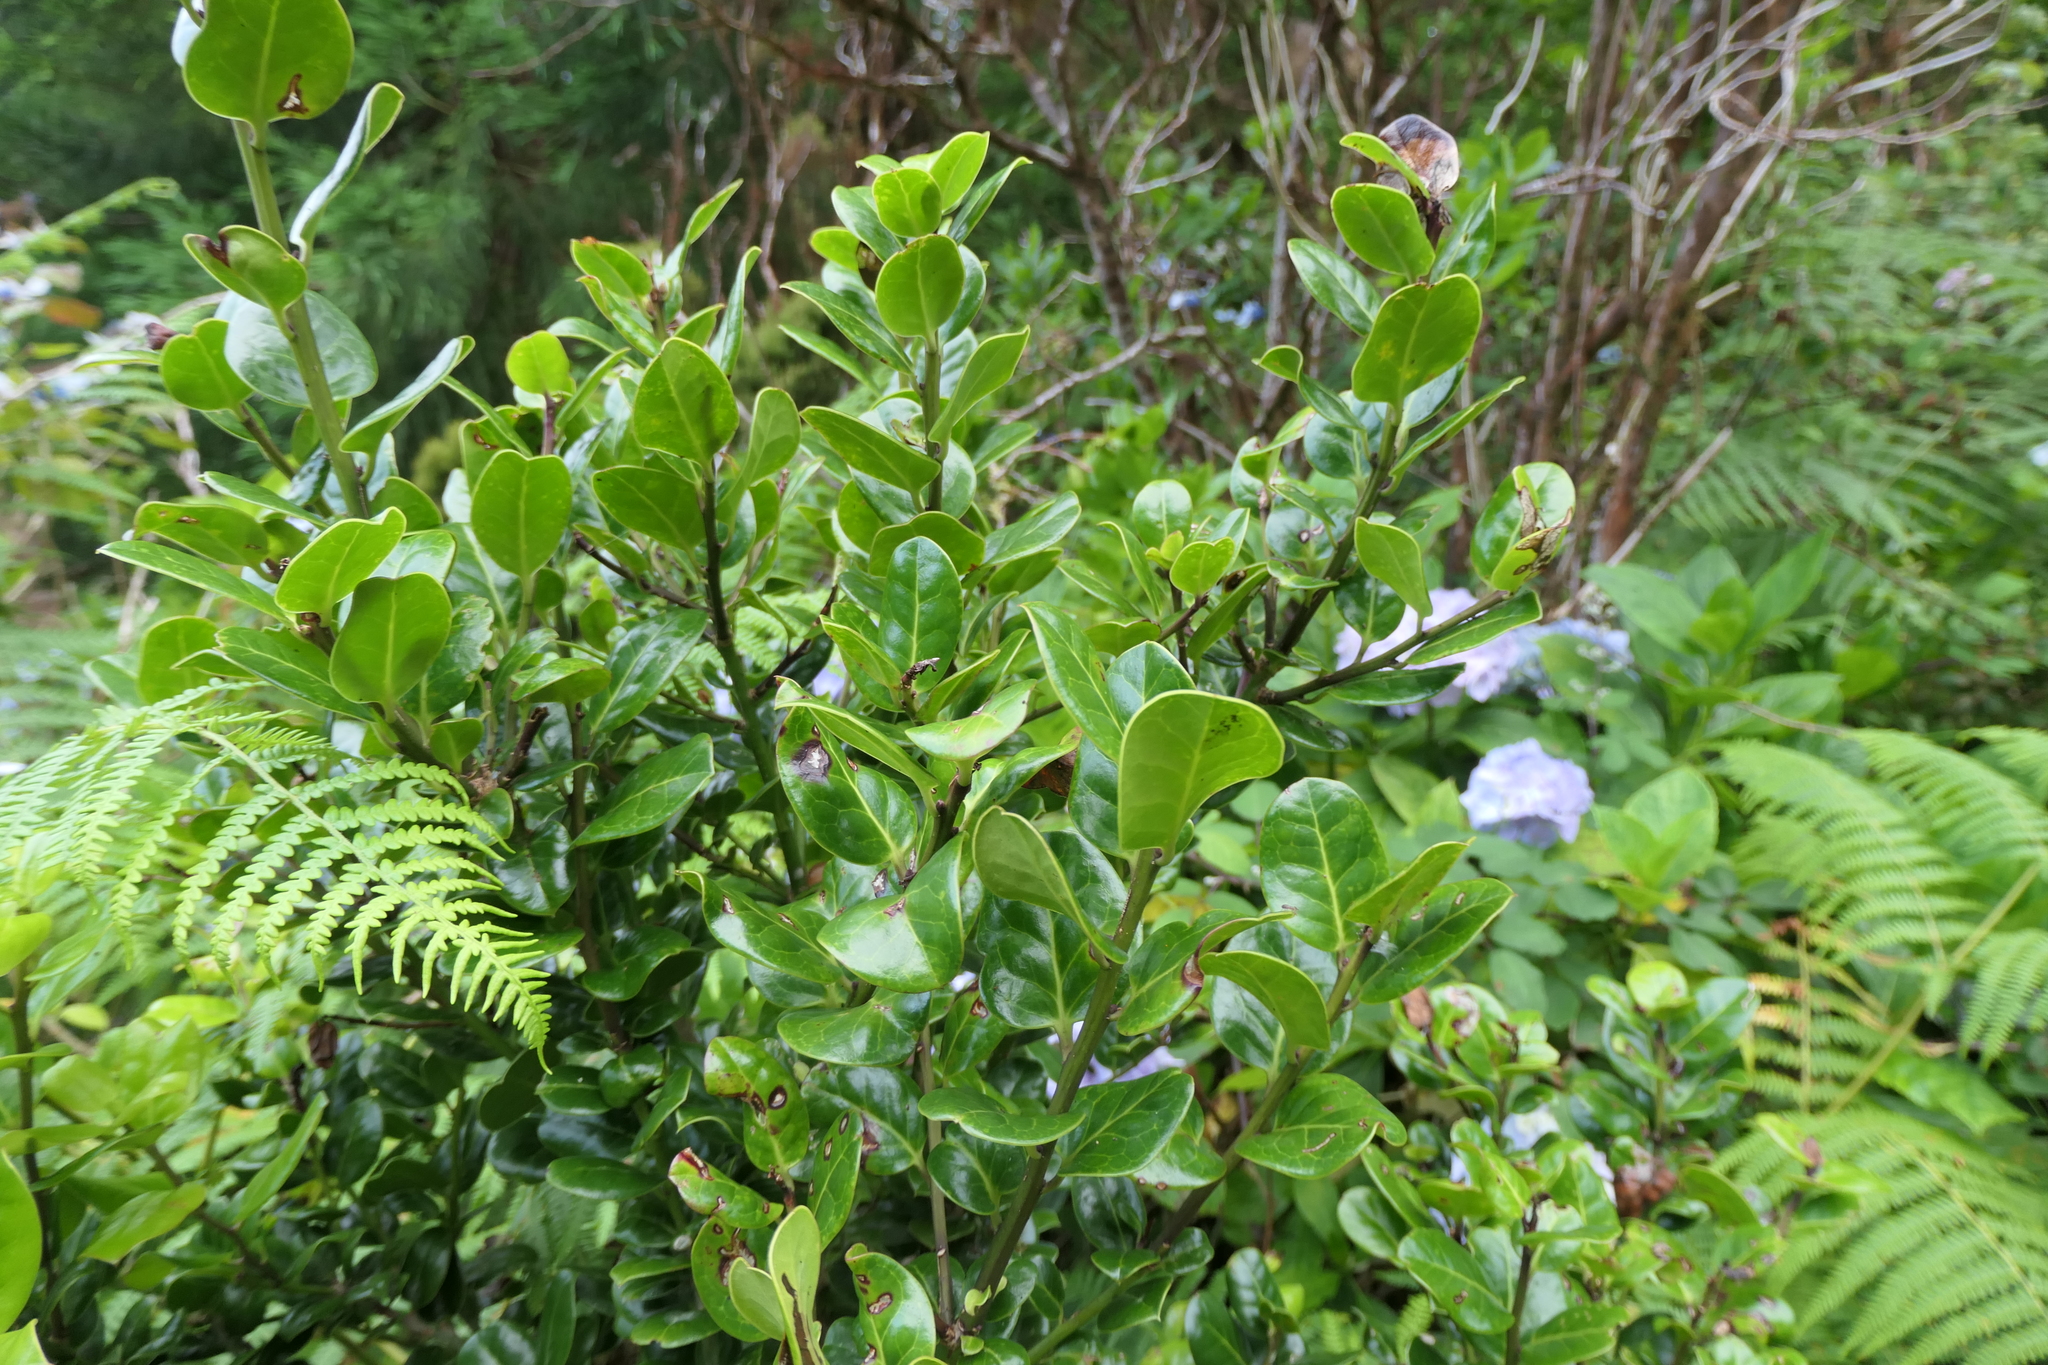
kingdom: Plantae
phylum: Tracheophyta
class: Magnoliopsida
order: Aquifoliales
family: Aquifoliaceae
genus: Ilex
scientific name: Ilex perado
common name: Madeira holly
